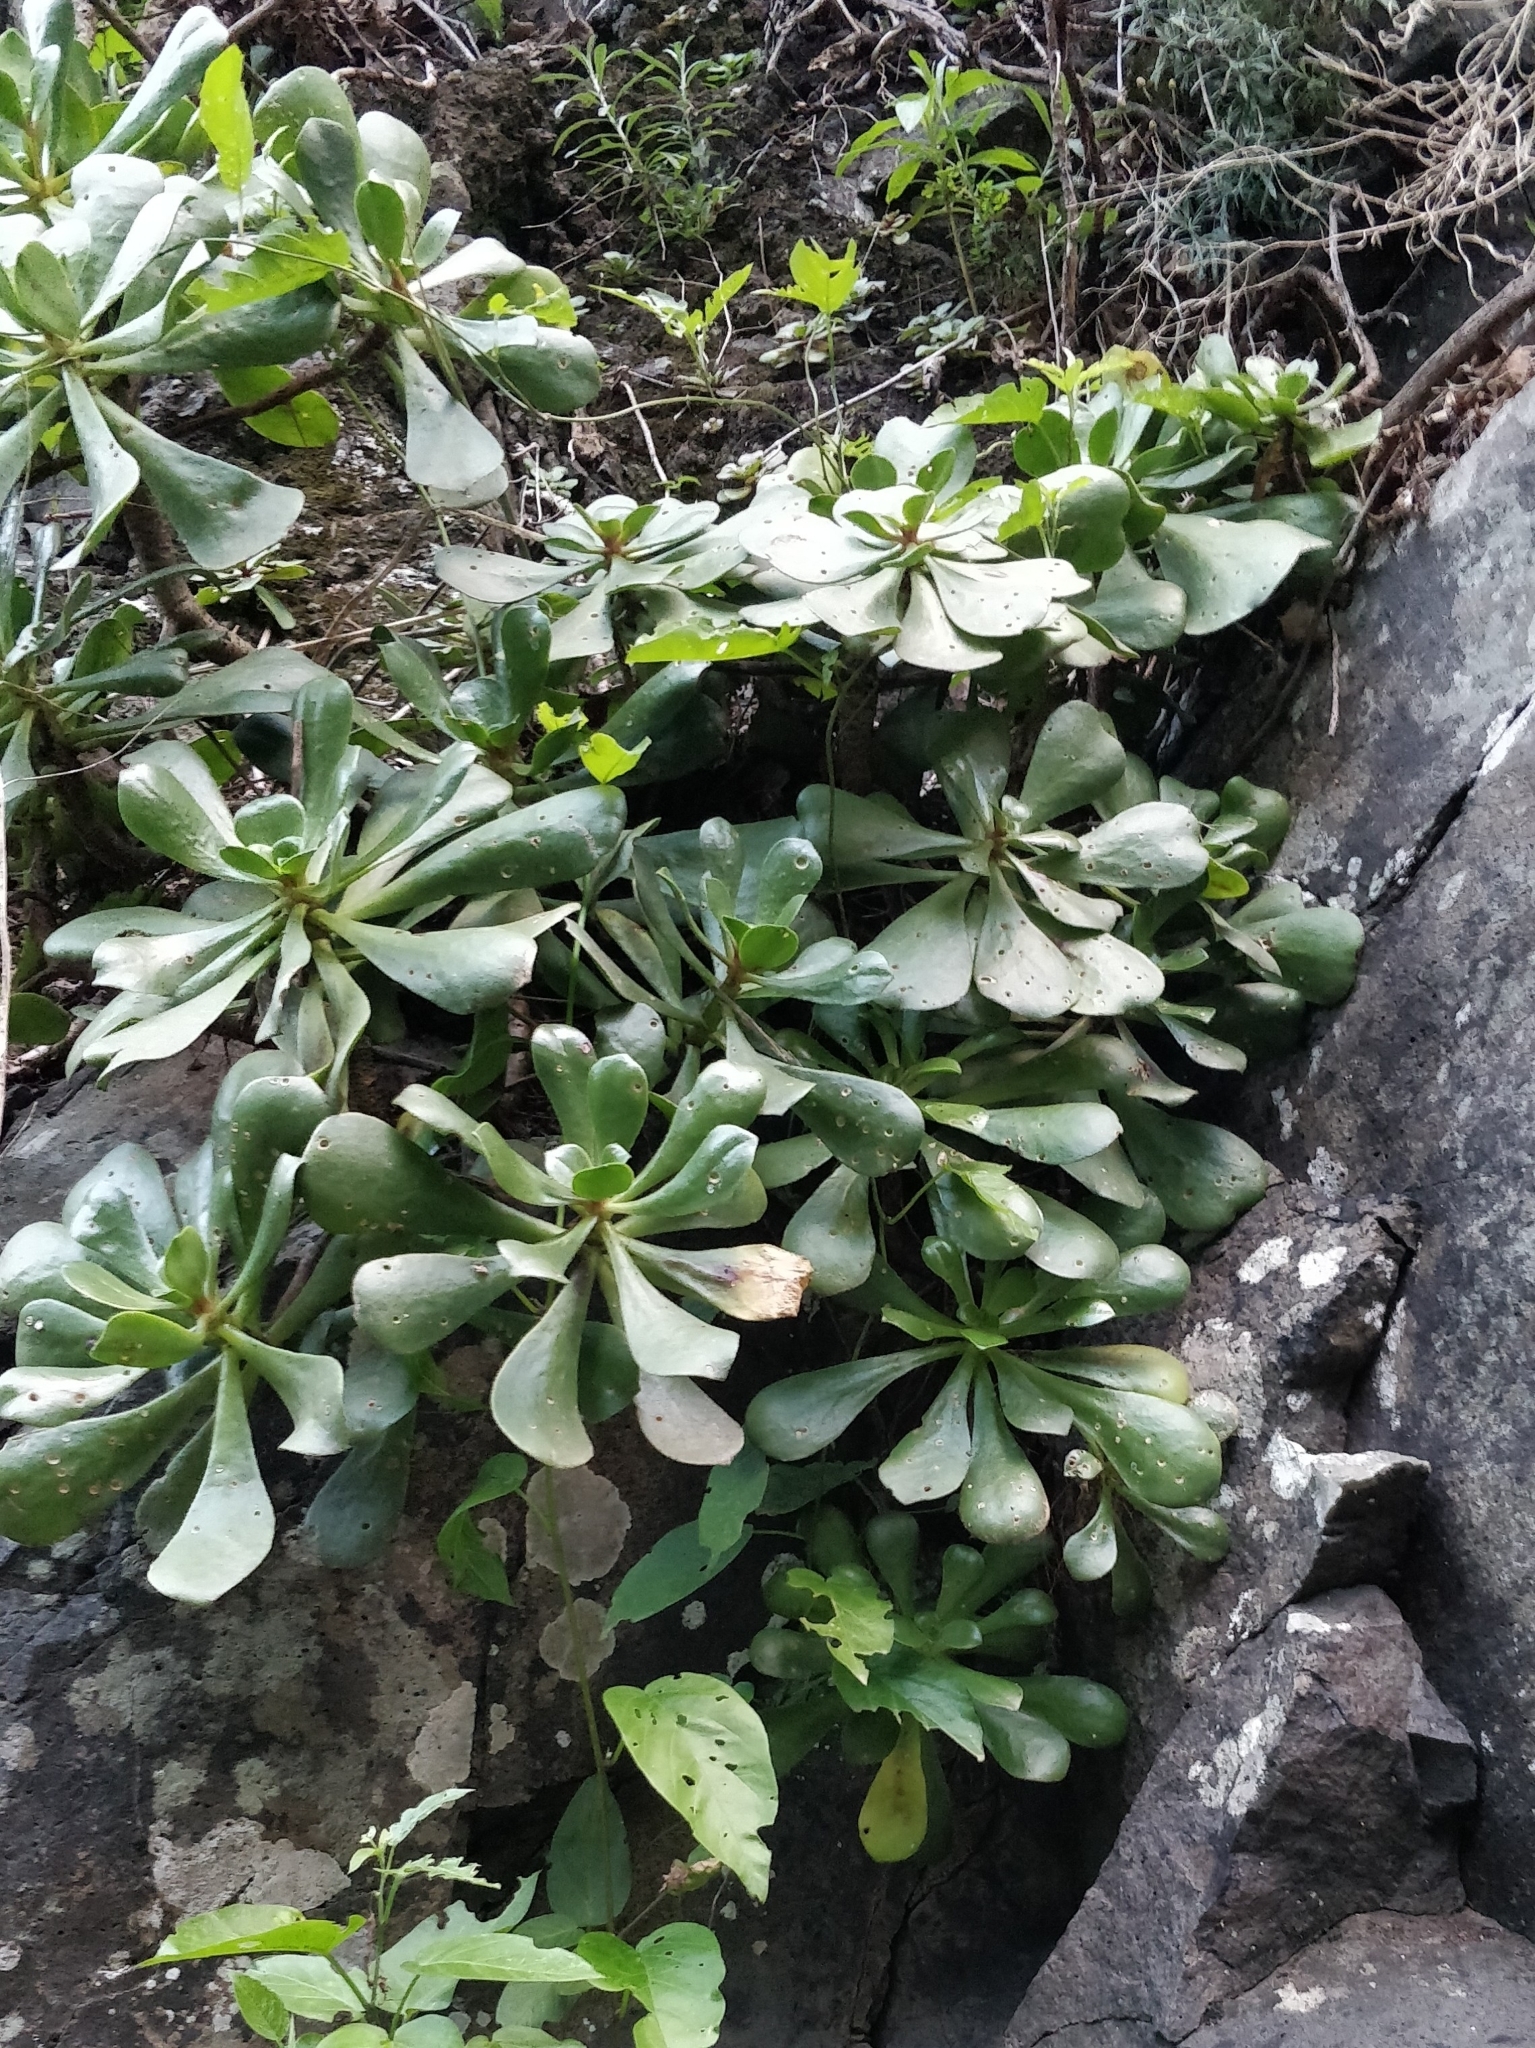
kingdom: Plantae
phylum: Tracheophyta
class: Magnoliopsida
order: Saxifragales
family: Crassulaceae
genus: Aeonium
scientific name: Aeonium glutinosum
